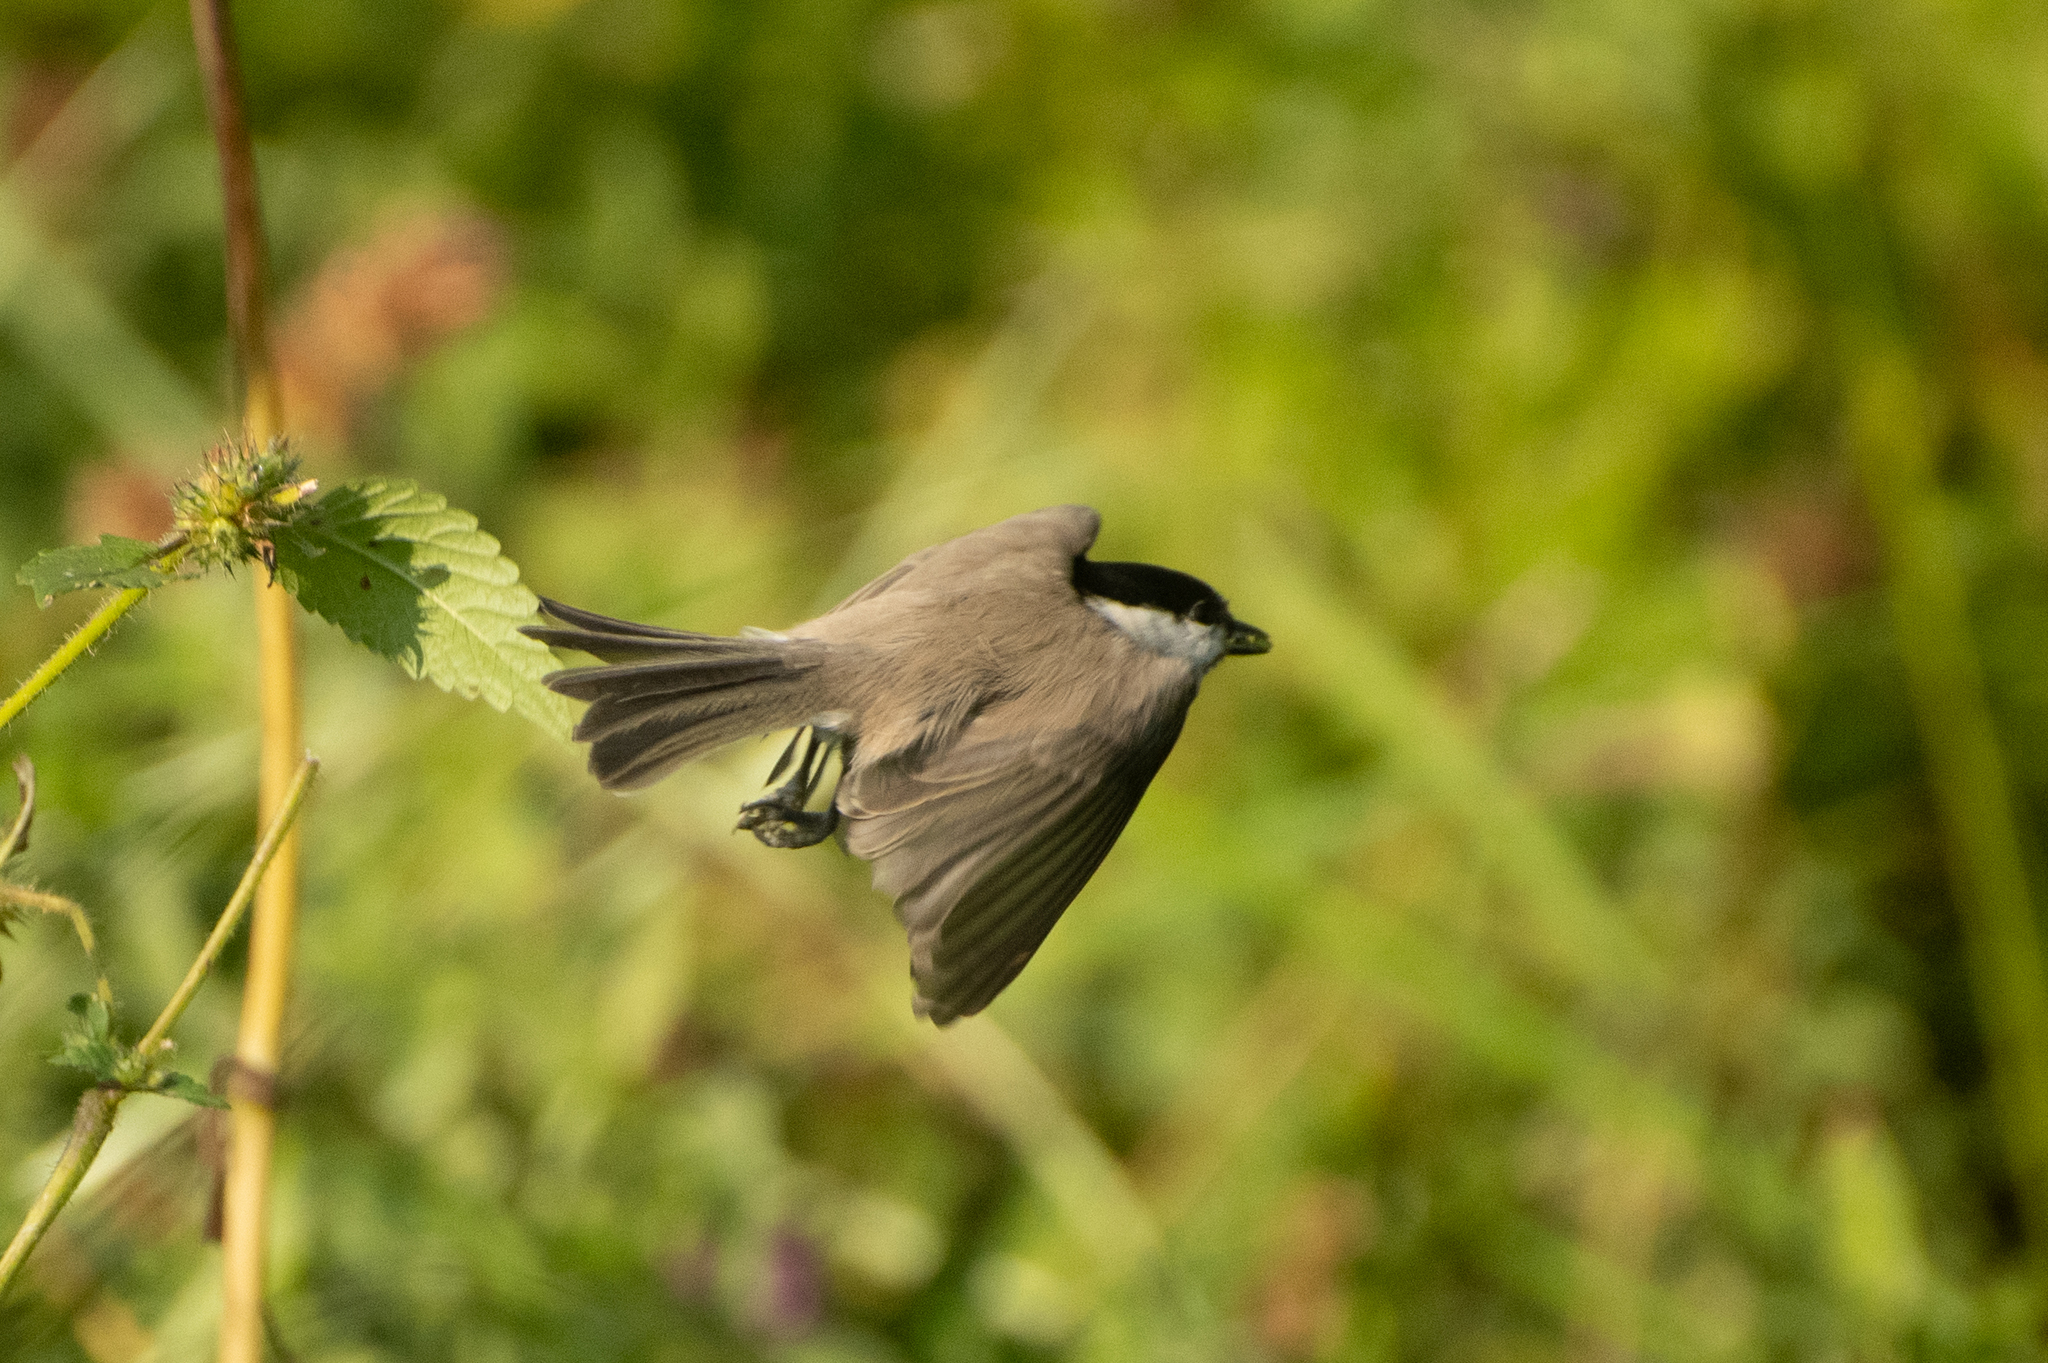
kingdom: Animalia
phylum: Chordata
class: Aves
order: Passeriformes
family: Paridae
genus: Poecile
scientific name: Poecile palustris
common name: Marsh tit
